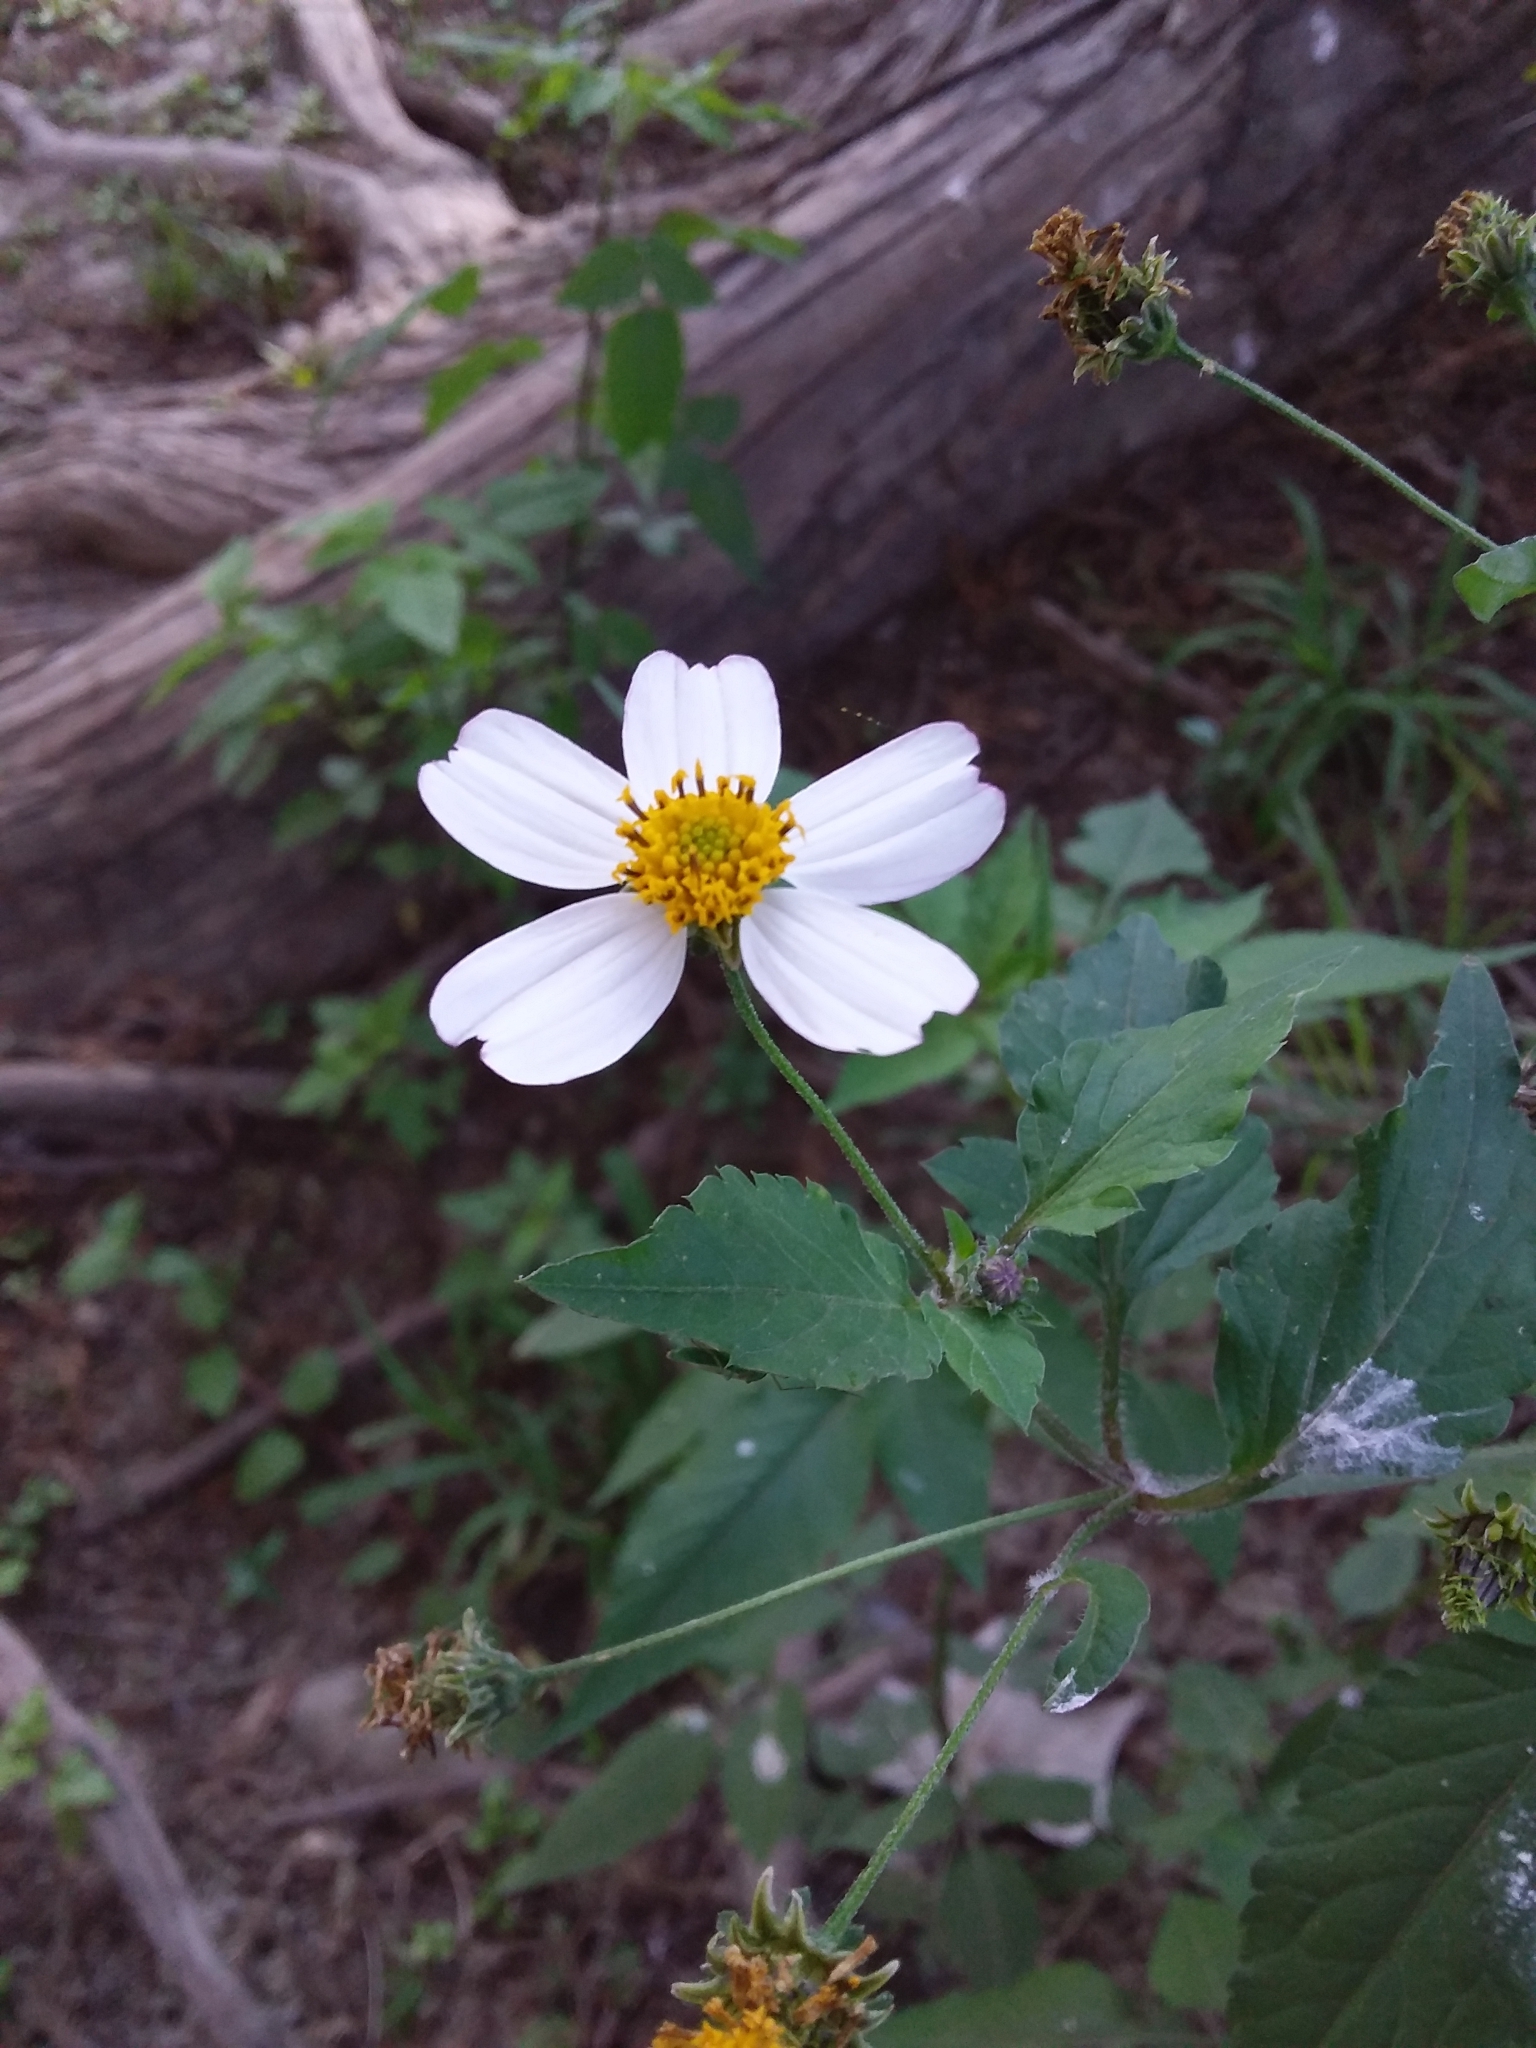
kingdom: Plantae
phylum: Tracheophyta
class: Magnoliopsida
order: Asterales
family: Asteraceae
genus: Bidens
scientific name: Bidens alba
